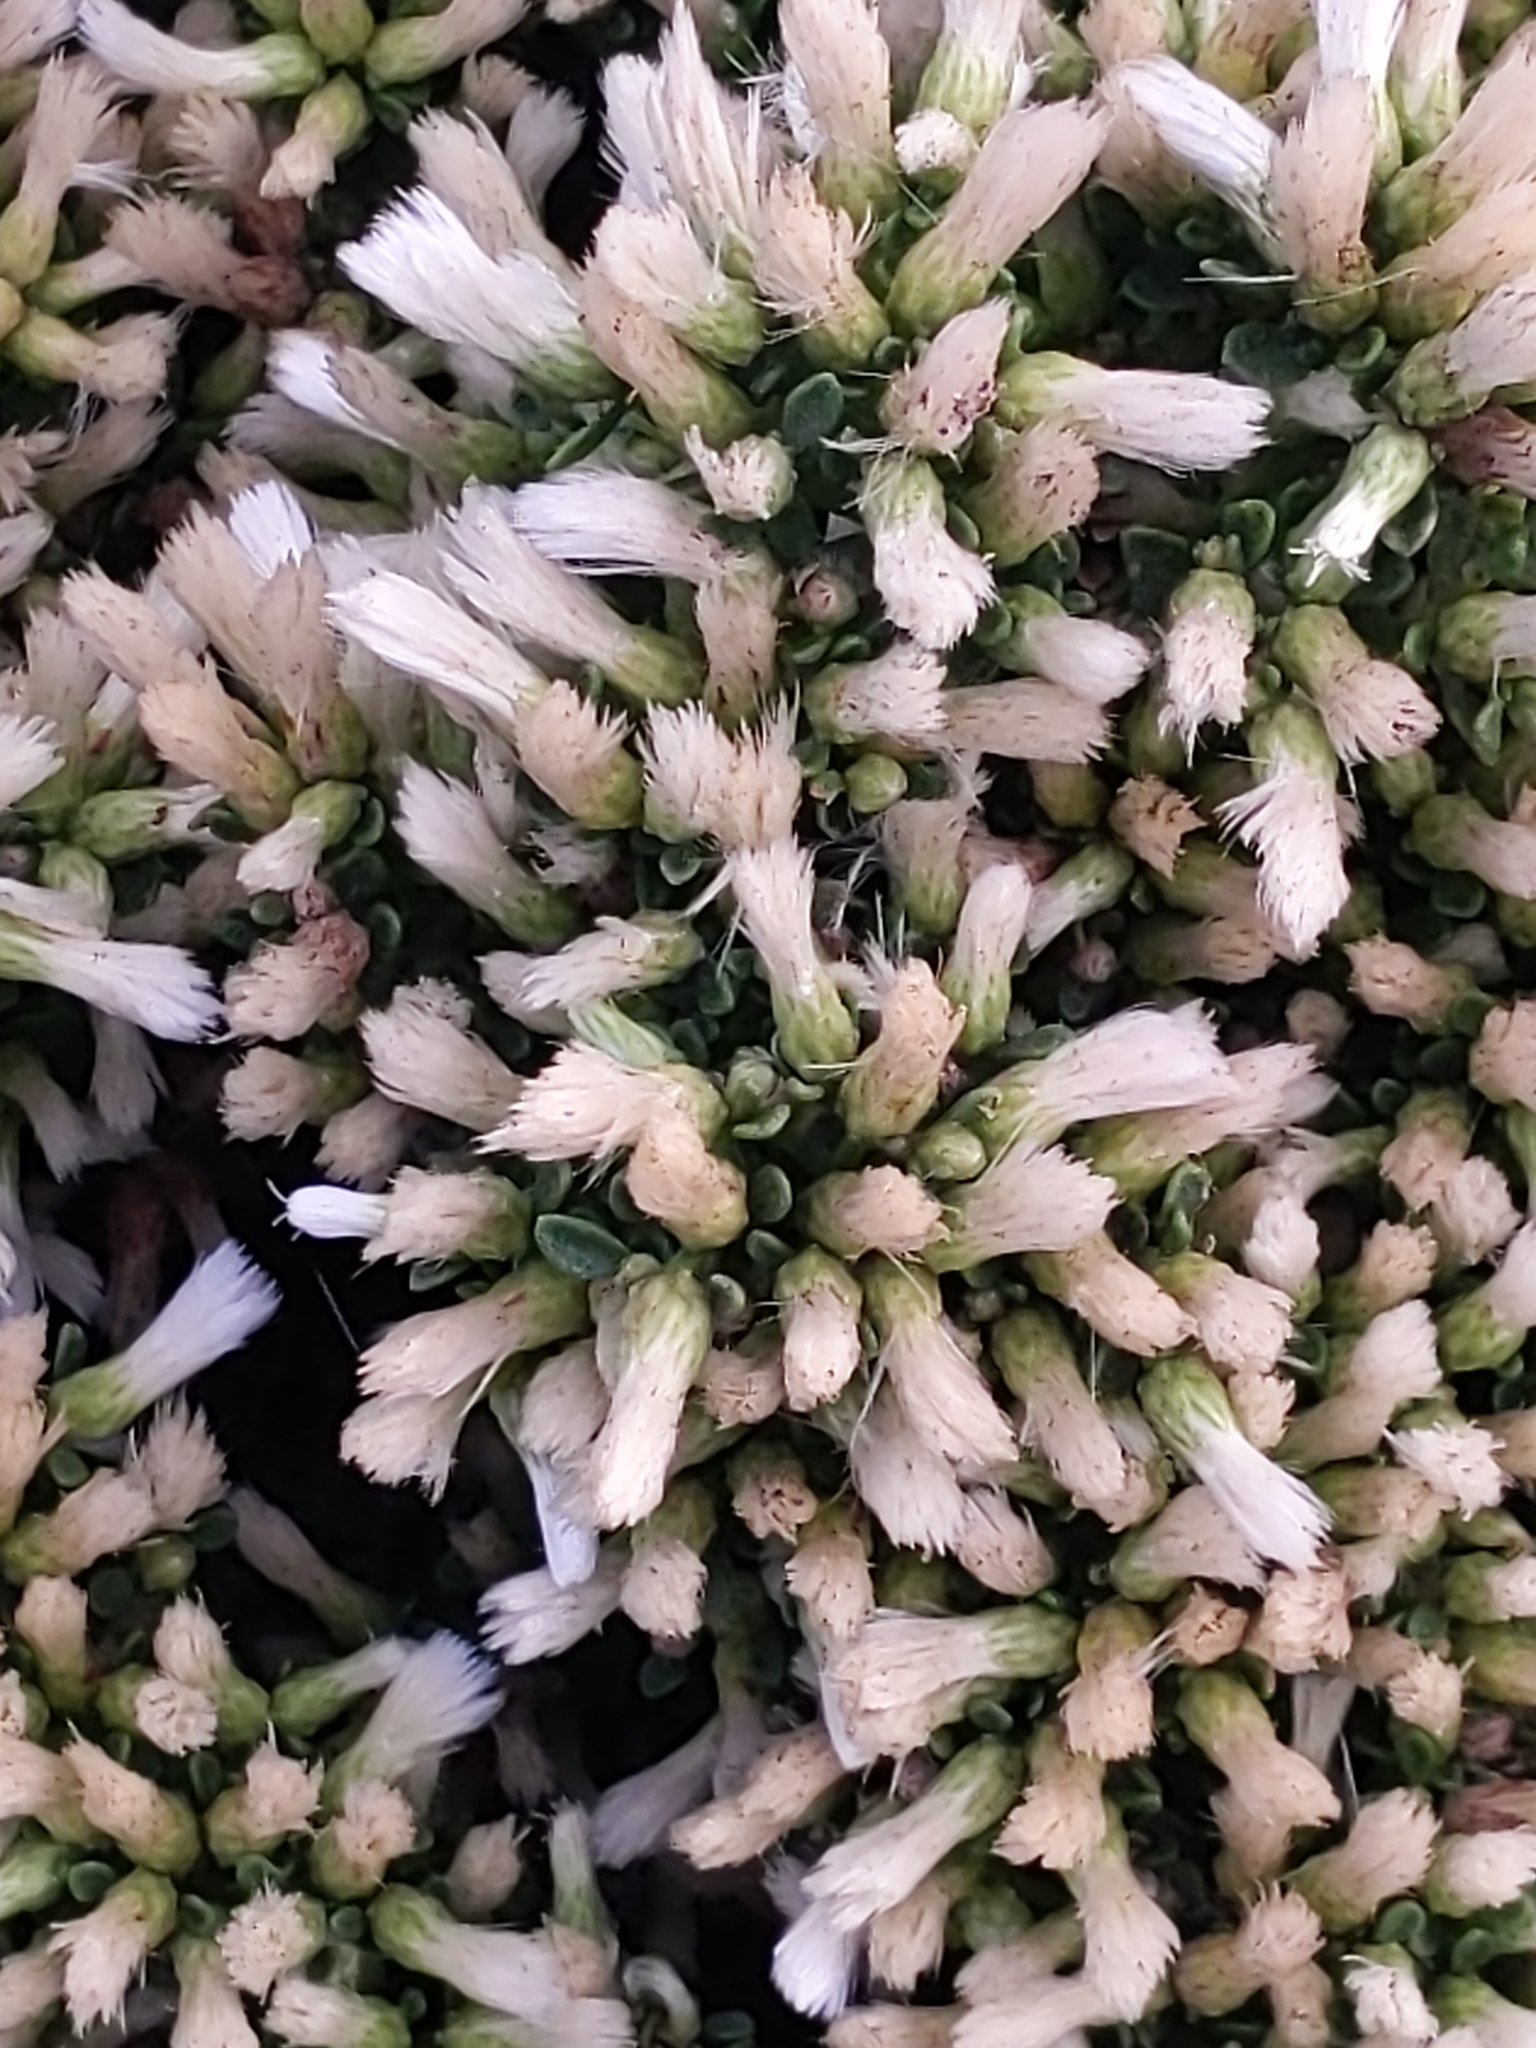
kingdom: Plantae
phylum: Tracheophyta
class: Magnoliopsida
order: Asterales
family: Asteraceae
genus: Baccharis
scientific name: Baccharis pilularis
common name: Coyotebrush
